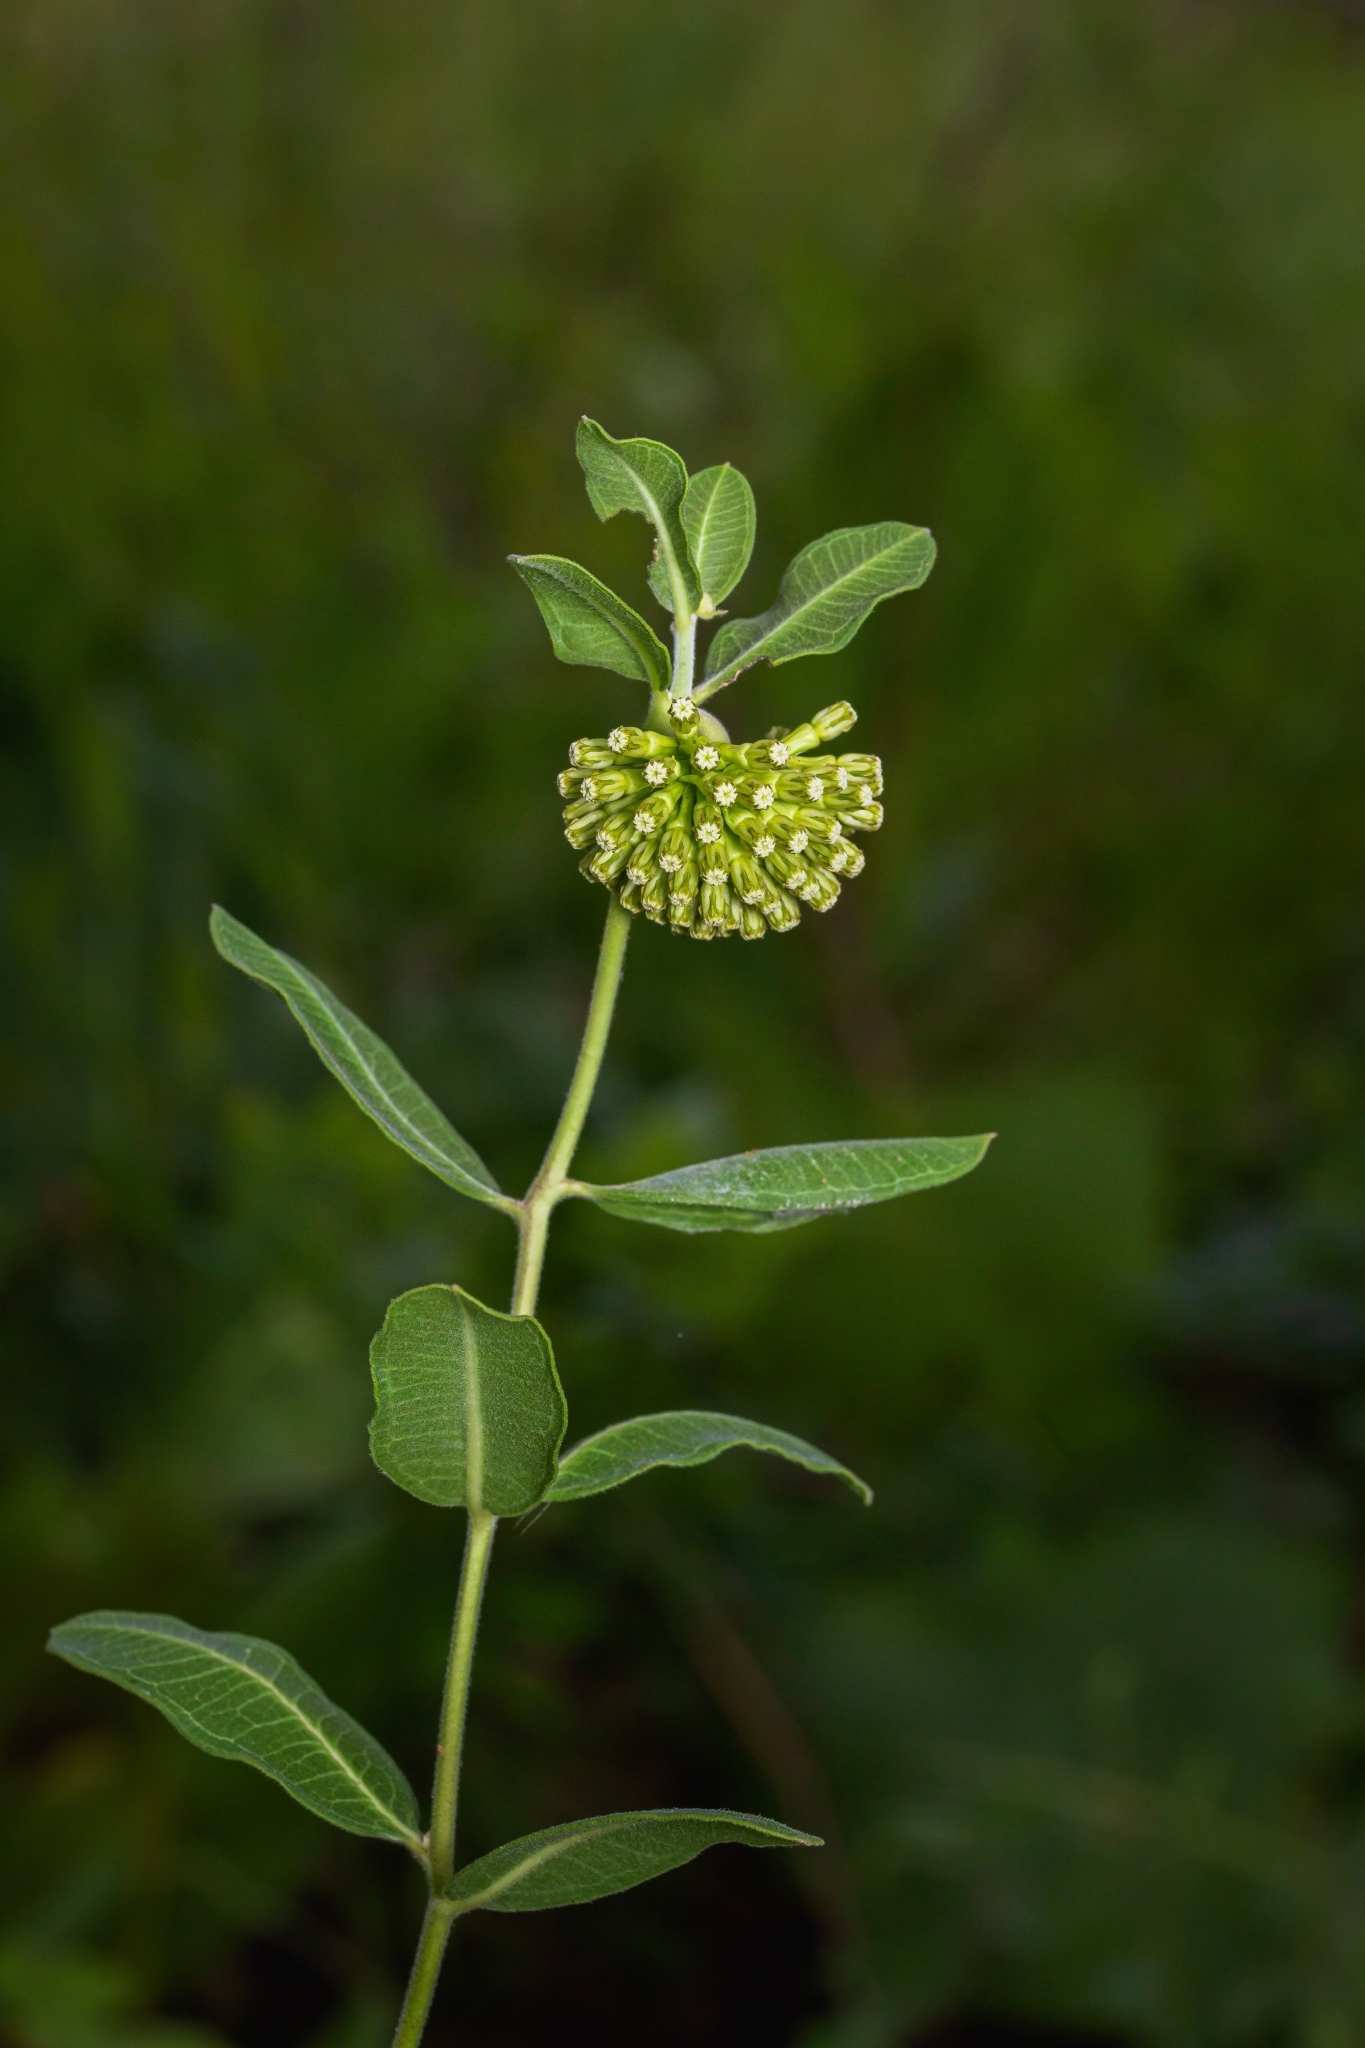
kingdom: Plantae
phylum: Tracheophyta
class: Magnoliopsida
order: Gentianales
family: Apocynaceae
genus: Asclepias
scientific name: Asclepias viridiflora
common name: Green comet milkweed
